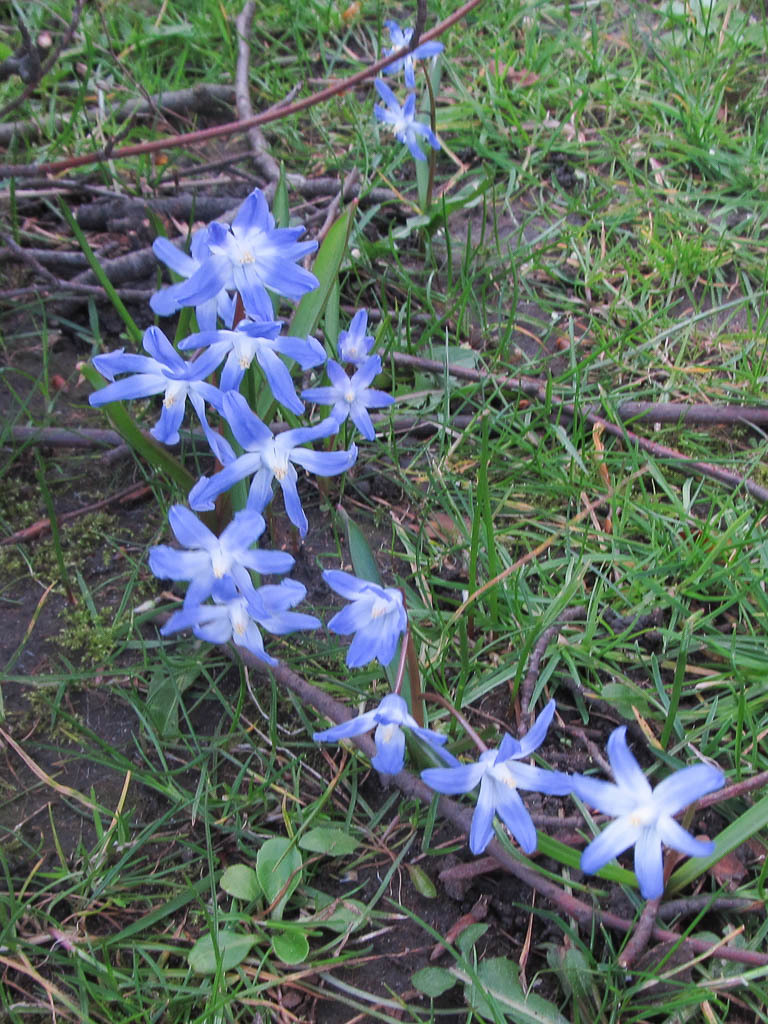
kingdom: Plantae
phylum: Tracheophyta
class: Liliopsida
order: Asparagales
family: Asparagaceae
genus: Scilla
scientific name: Scilla forbesii
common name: Glory-of-the-snow
